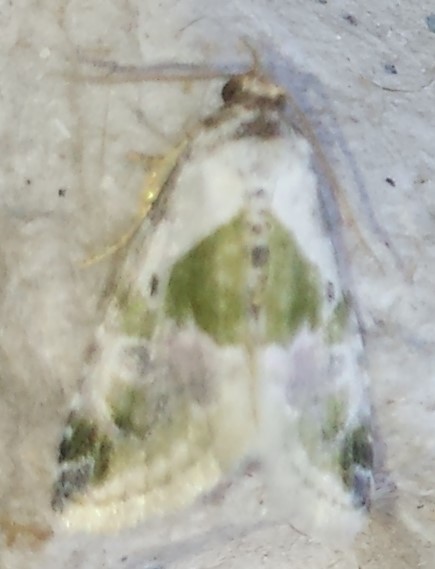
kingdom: Animalia
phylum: Arthropoda
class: Insecta
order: Lepidoptera
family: Noctuidae
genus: Maliattha
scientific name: Maliattha synochitis
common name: Black-dotted glyph
